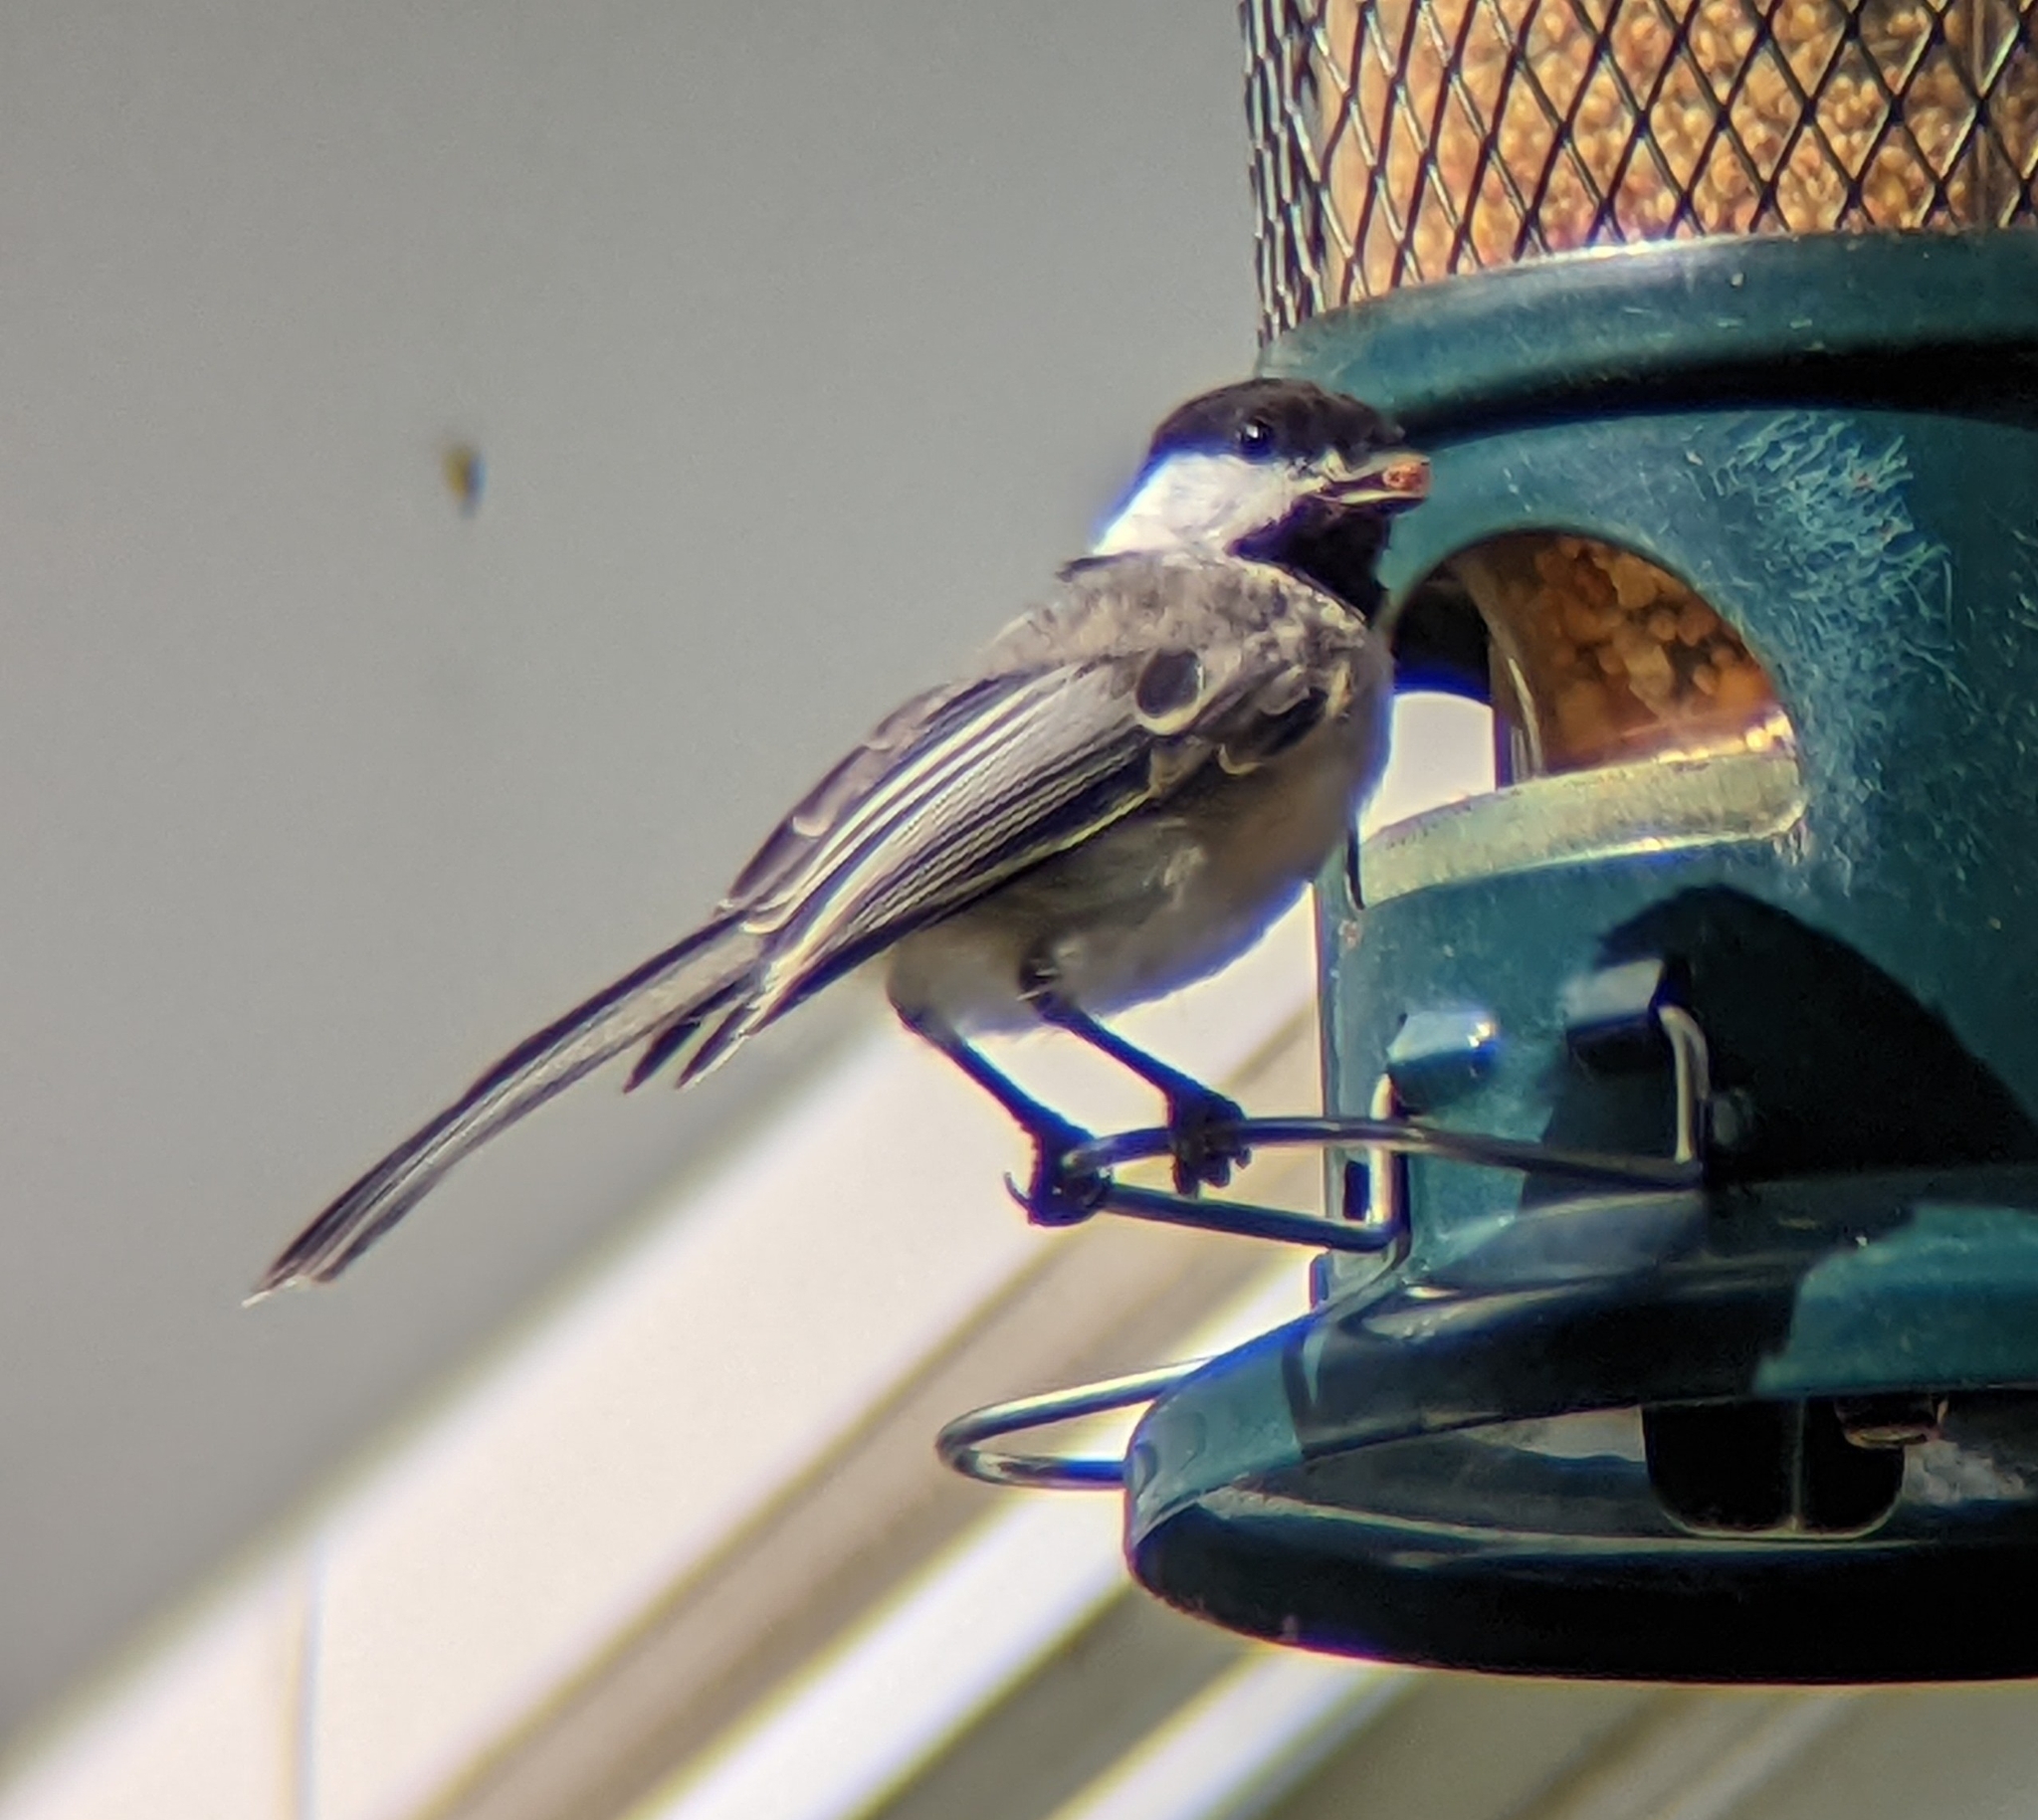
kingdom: Animalia
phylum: Chordata
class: Aves
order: Passeriformes
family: Paridae
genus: Poecile
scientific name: Poecile atricapillus
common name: Black-capped chickadee
